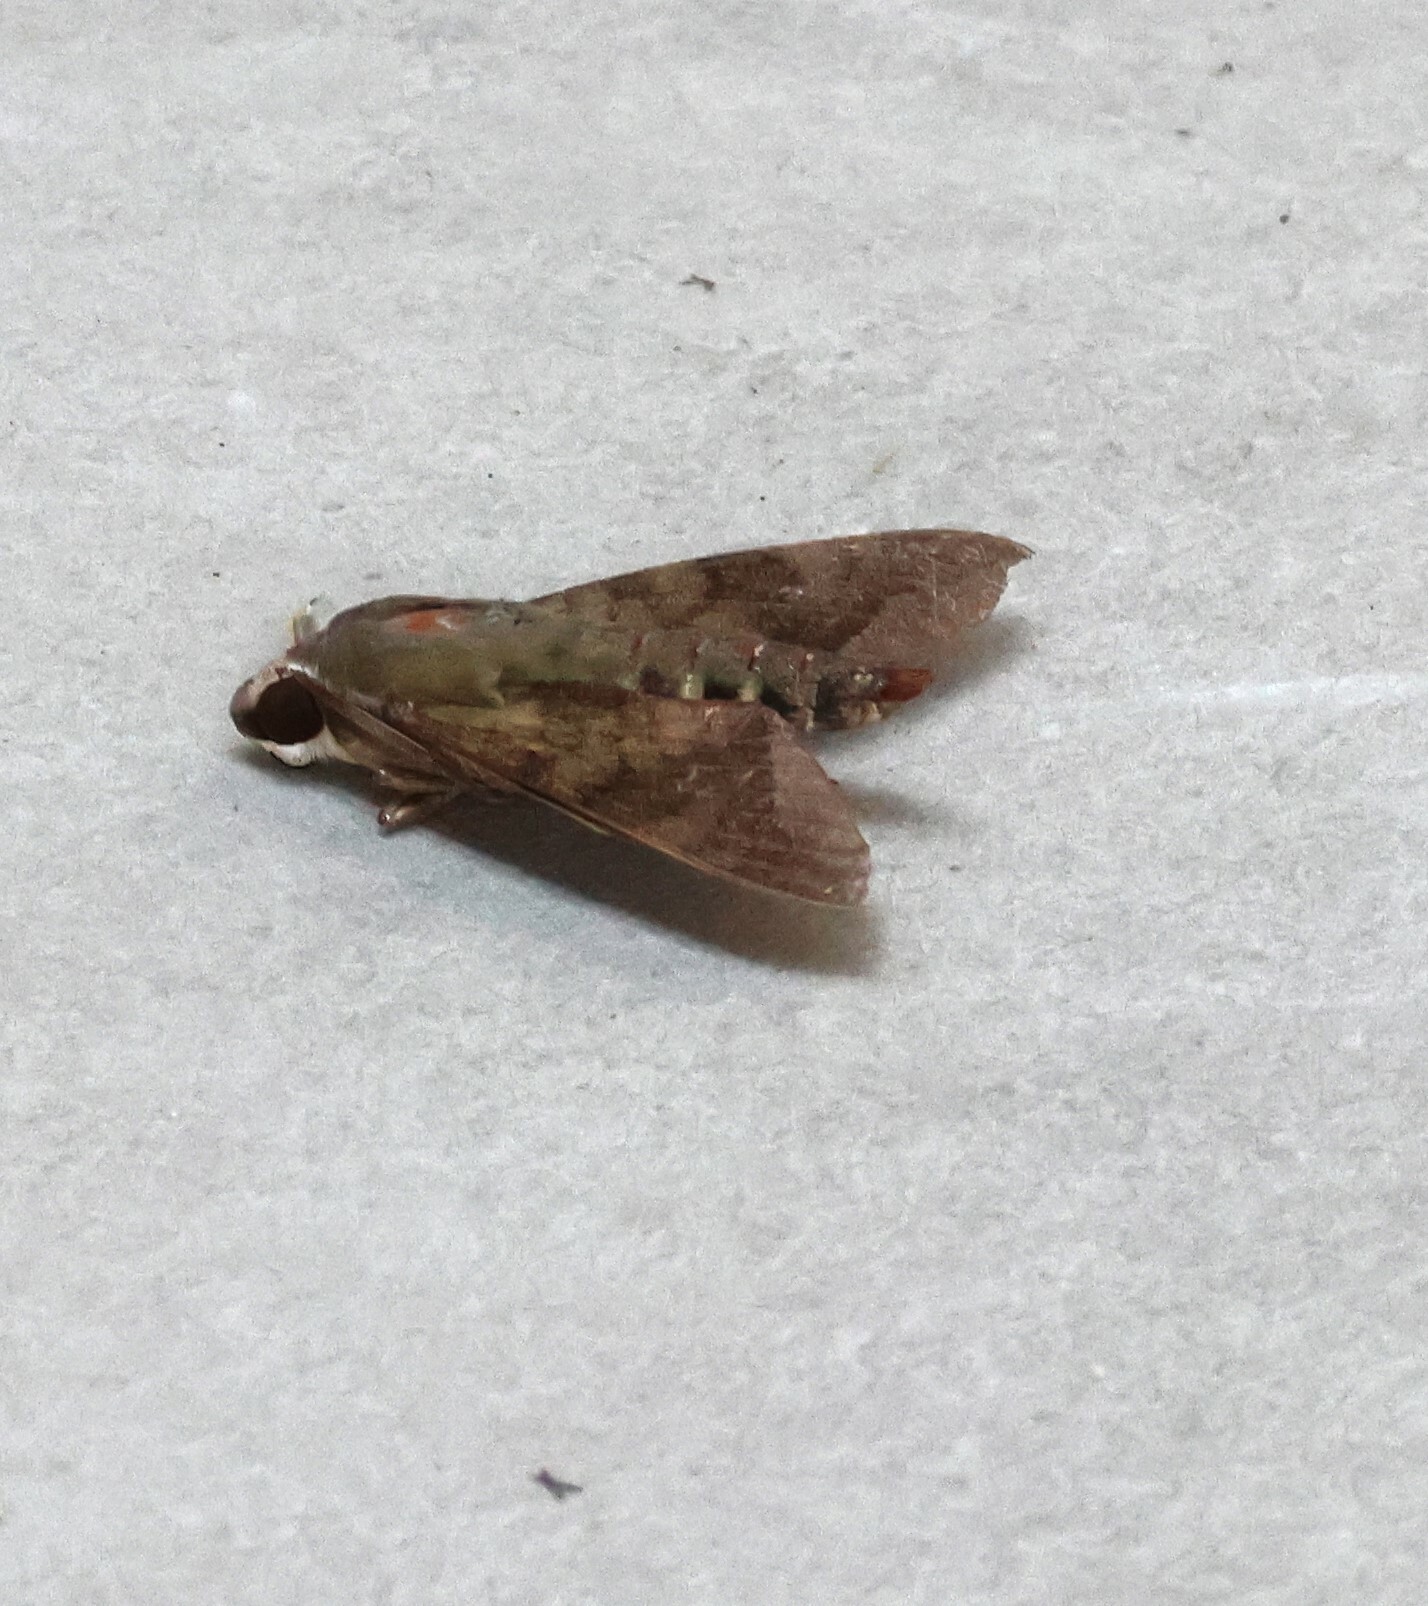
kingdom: Animalia
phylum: Arthropoda
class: Insecta
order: Lepidoptera
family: Sphingidae
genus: Nephele
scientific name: Nephele comma
